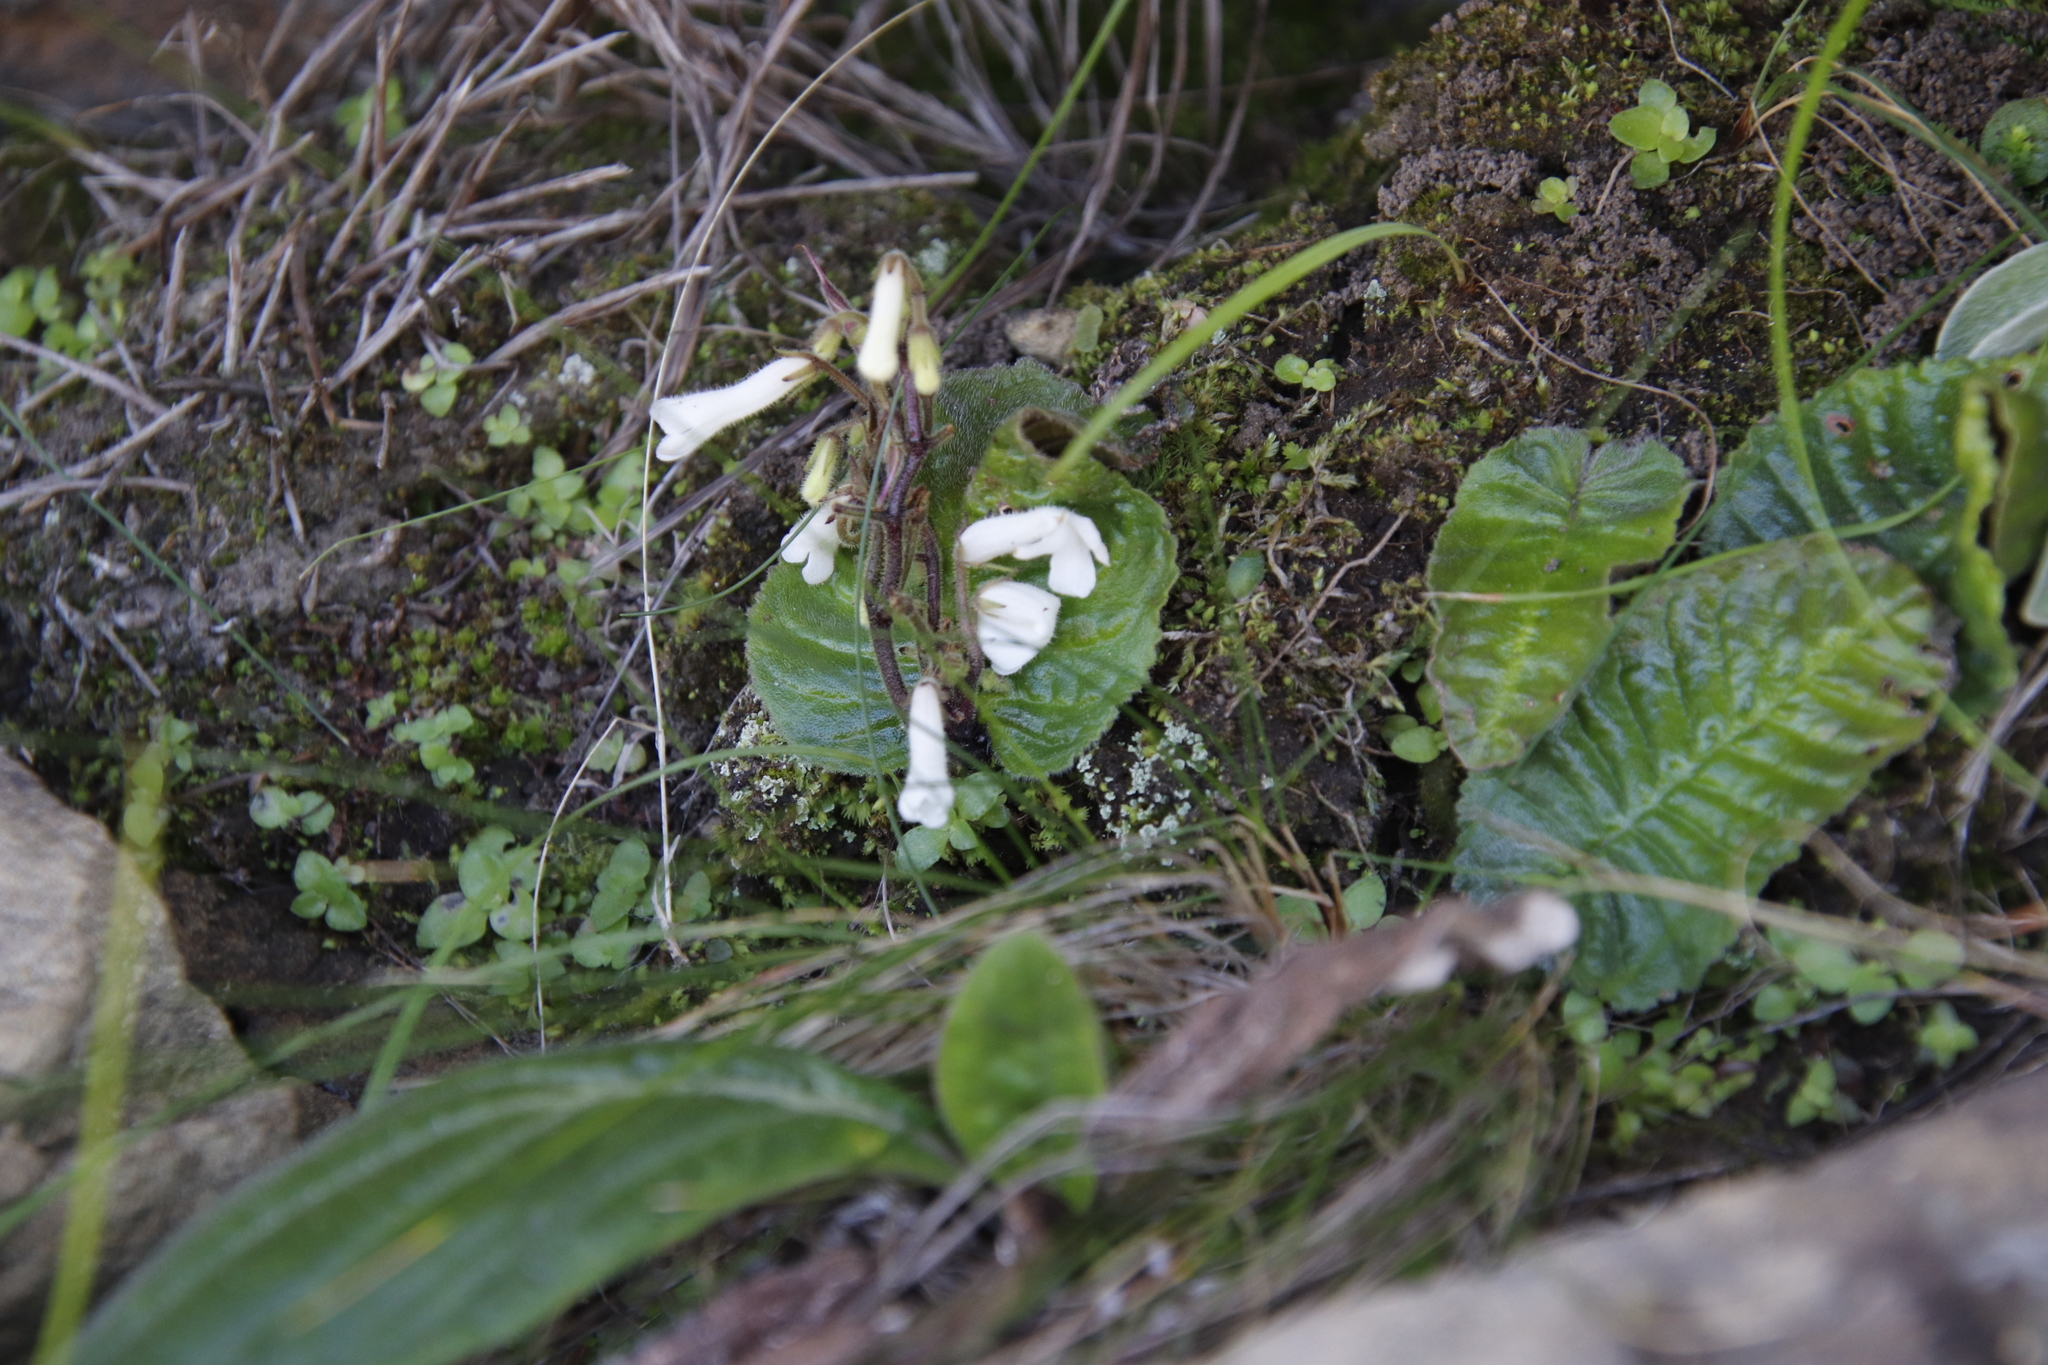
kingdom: Plantae
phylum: Tracheophyta
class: Magnoliopsida
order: Lamiales
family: Gesneriaceae
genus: Streptocarpus
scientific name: Streptocarpus pusillus
